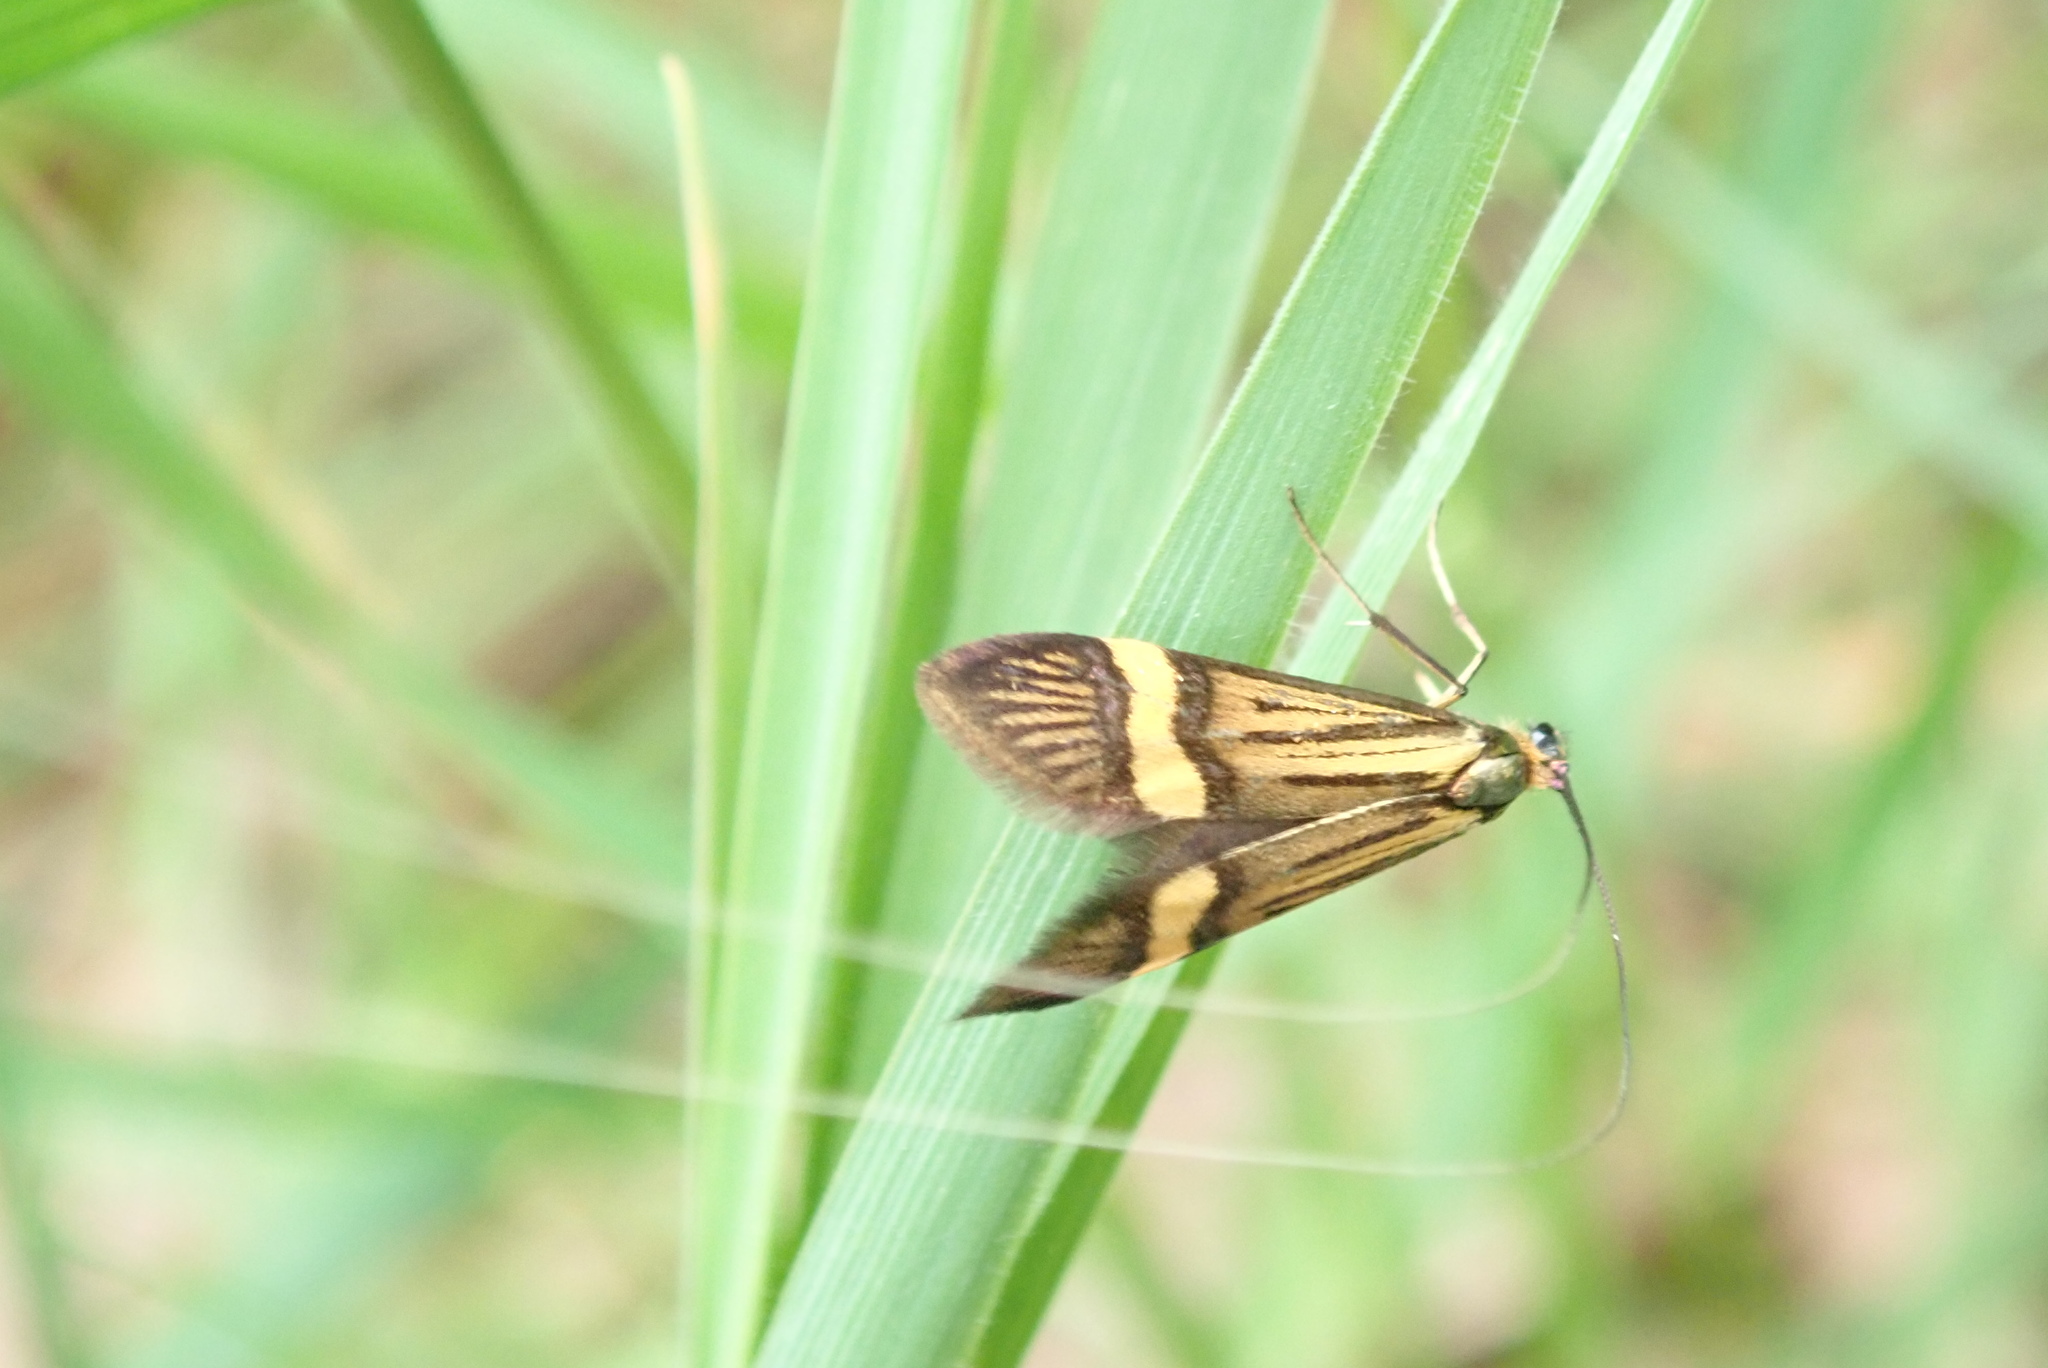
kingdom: Animalia
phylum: Arthropoda
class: Insecta
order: Lepidoptera
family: Adelidae
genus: Nemophora
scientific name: Nemophora degeerella
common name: Yellow-barred long-horn
